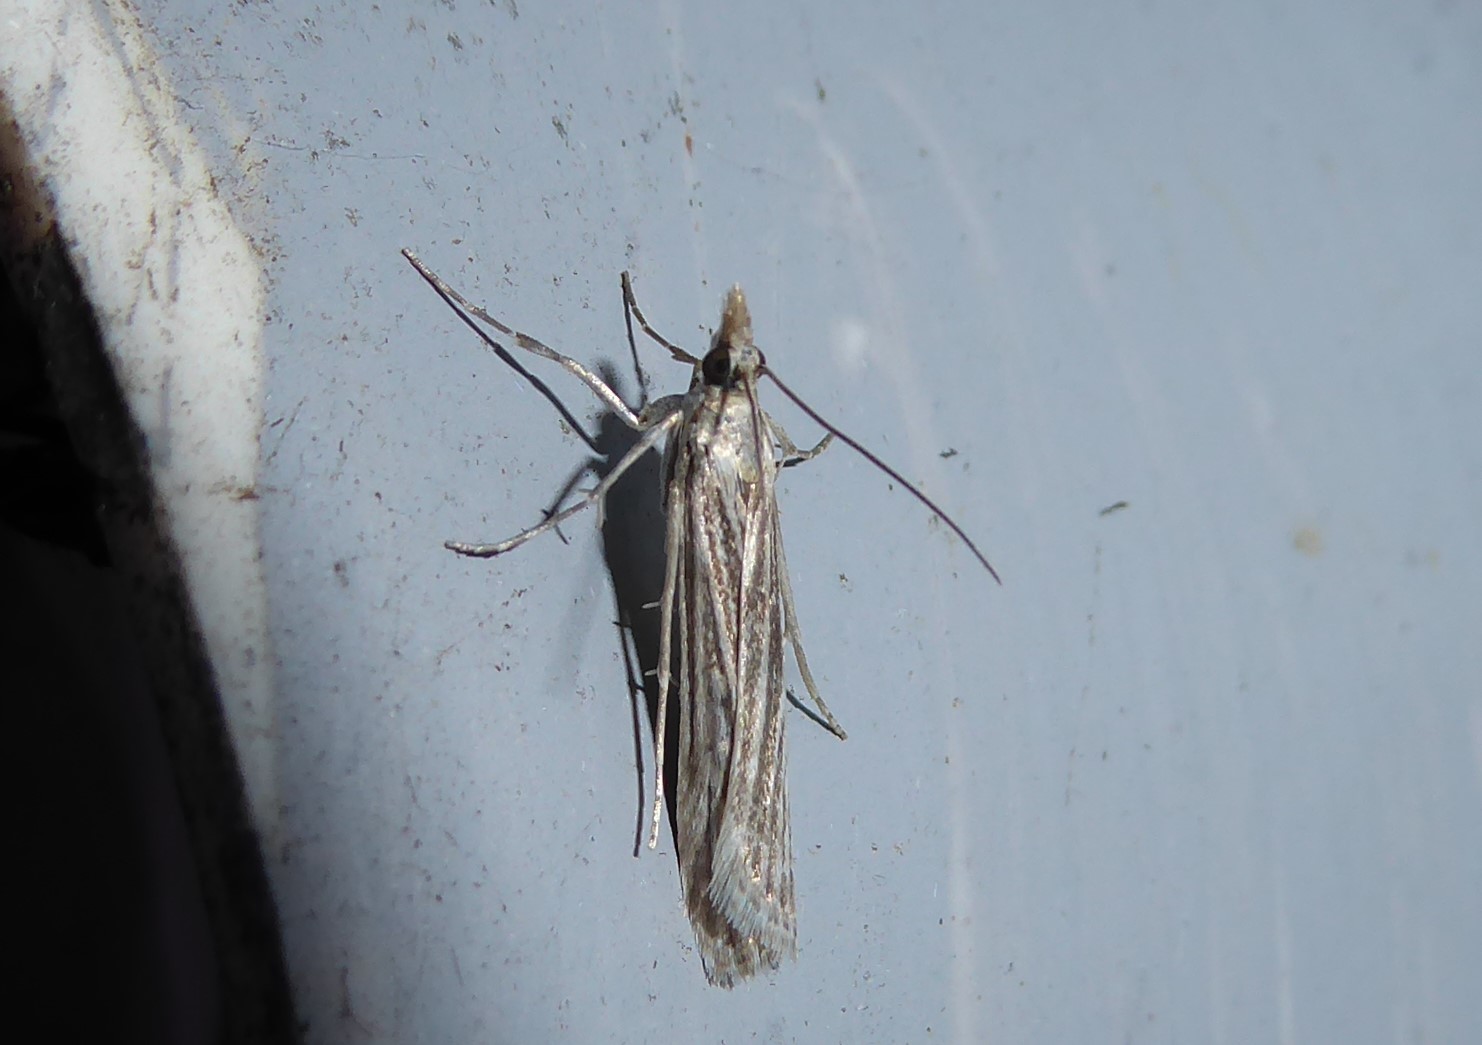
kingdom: Animalia
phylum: Arthropoda
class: Insecta
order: Lepidoptera
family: Crambidae
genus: Eudonia
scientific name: Eudonia atmogramma
